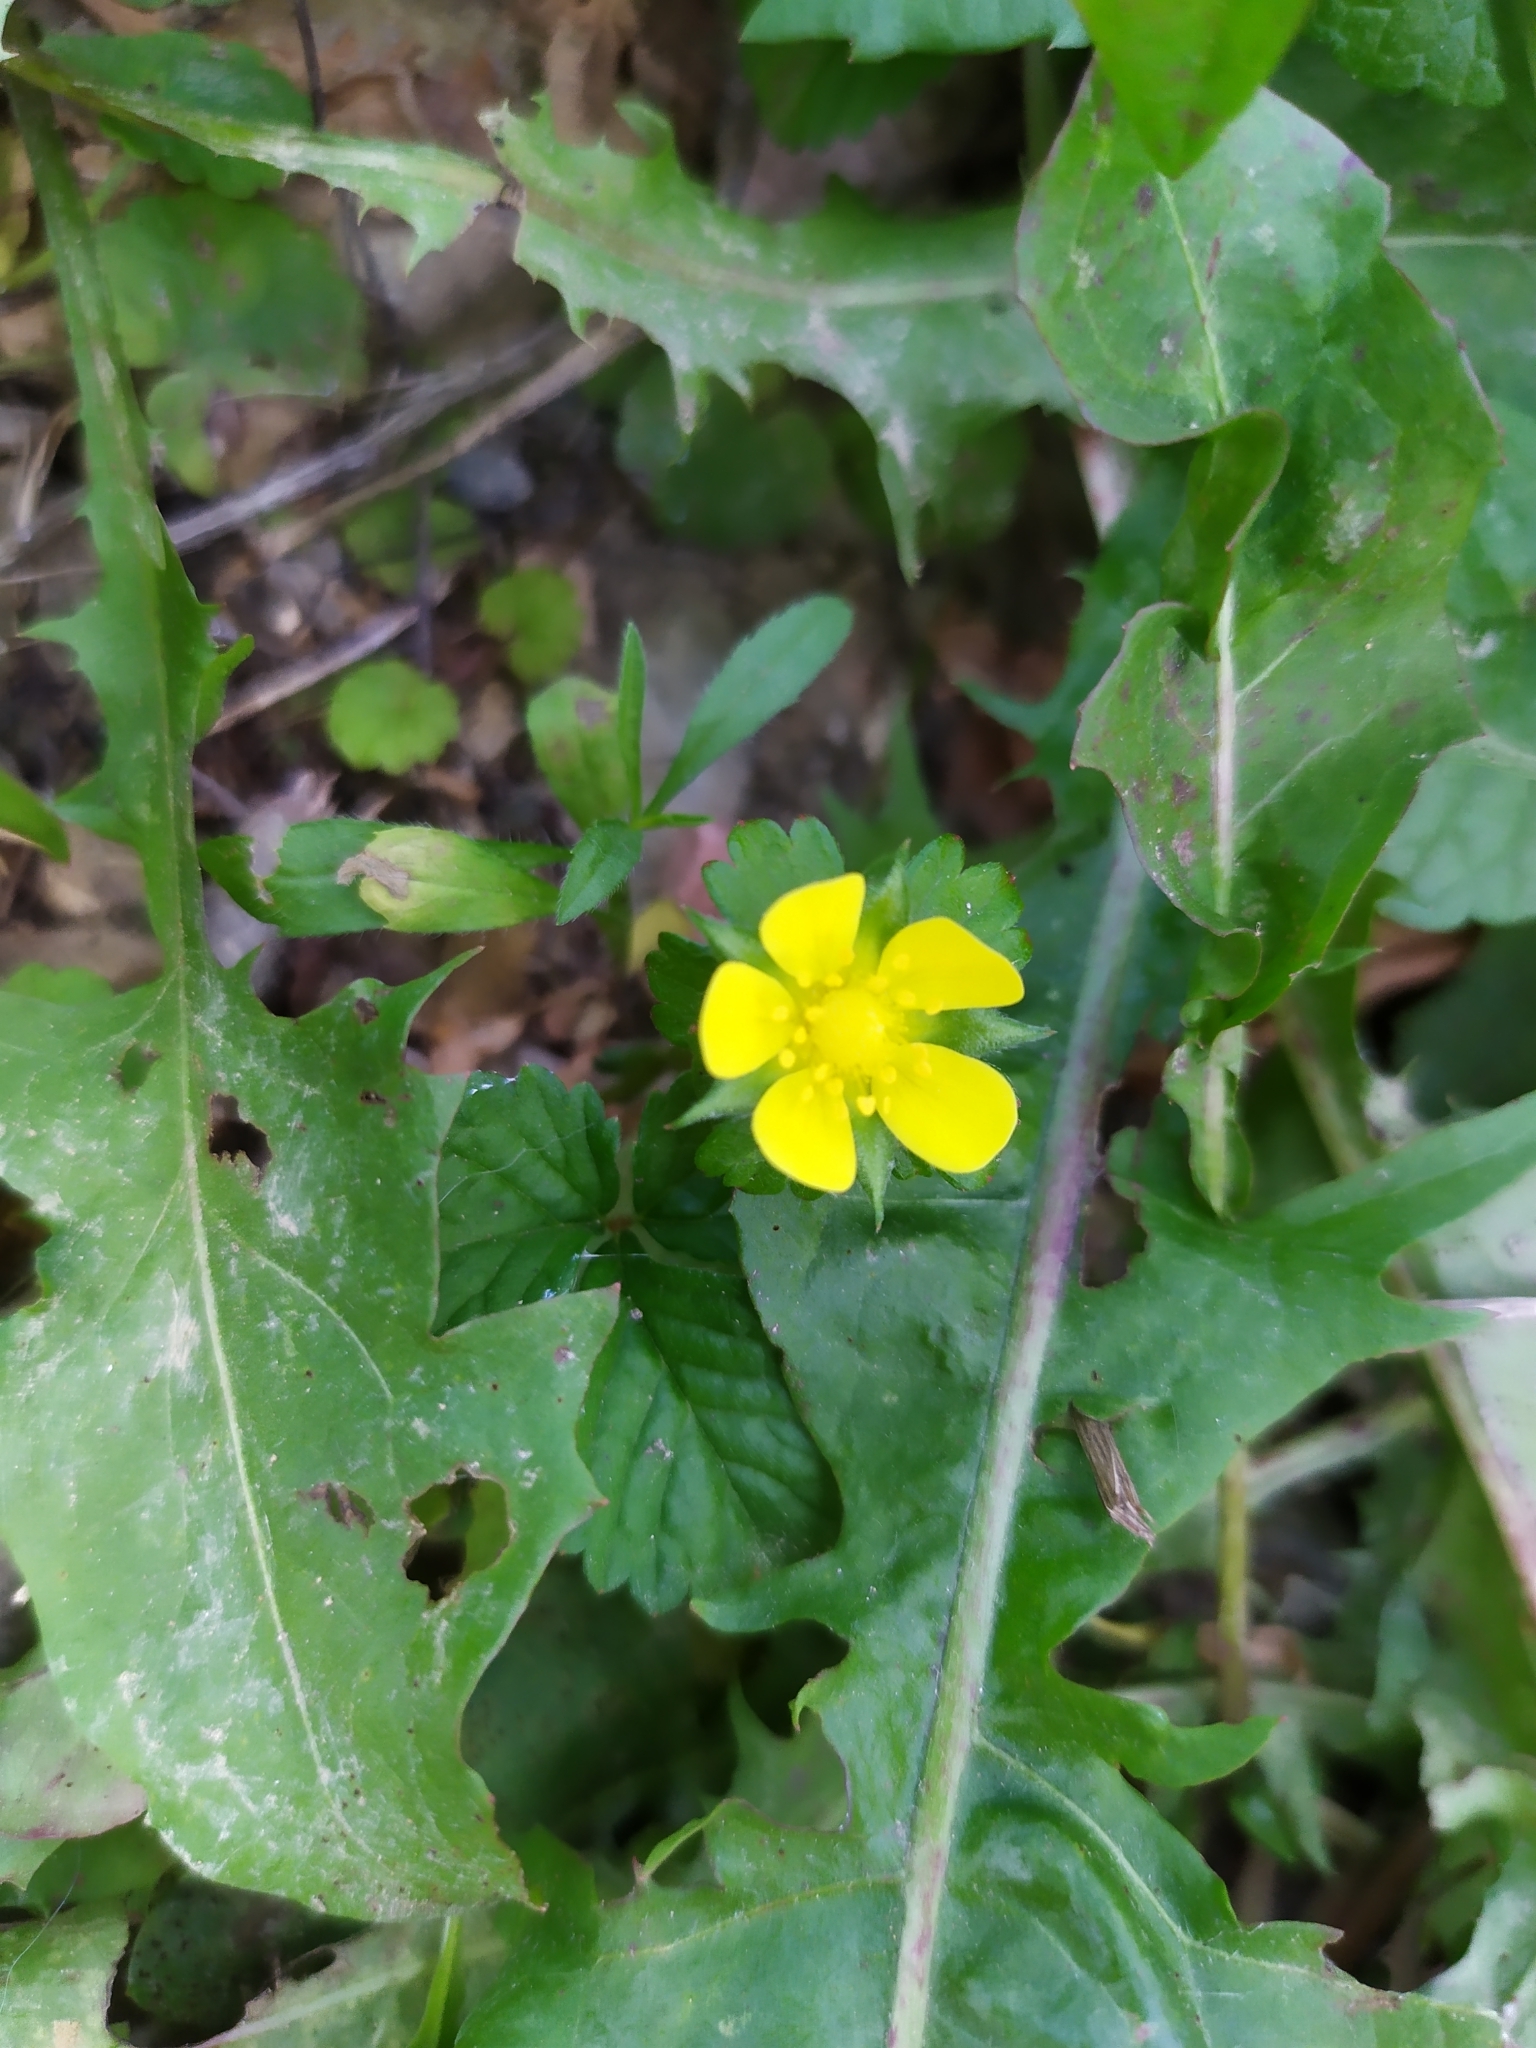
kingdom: Plantae
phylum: Tracheophyta
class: Magnoliopsida
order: Rosales
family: Rosaceae
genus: Potentilla
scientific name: Potentilla indica
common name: Yellow-flowered strawberry
